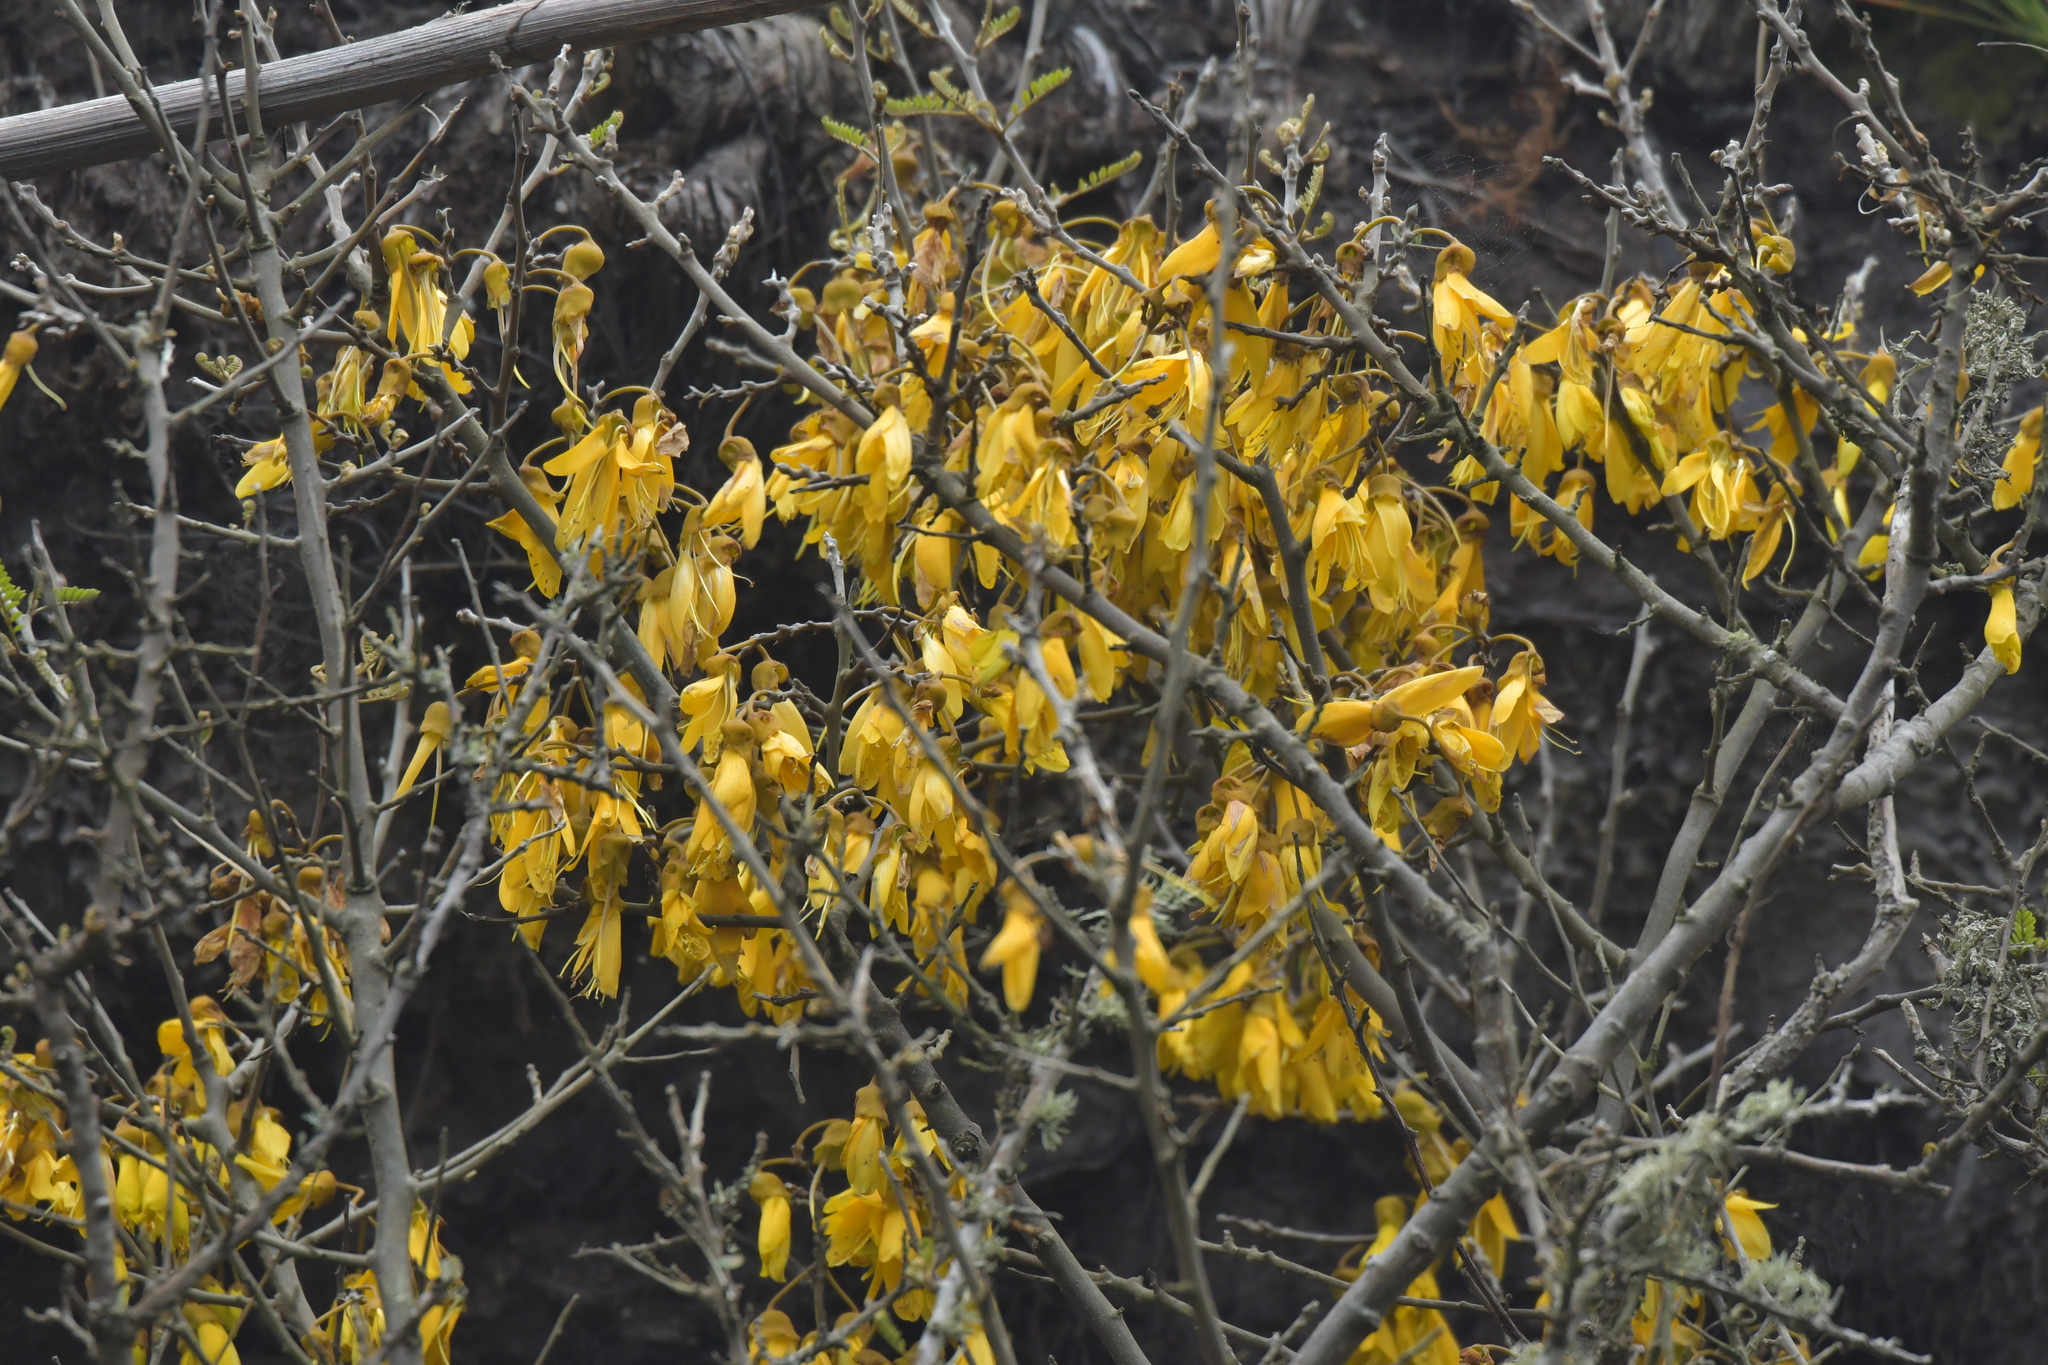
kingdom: Plantae
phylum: Tracheophyta
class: Magnoliopsida
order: Fabales
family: Fabaceae
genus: Sophora
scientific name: Sophora chathamica
